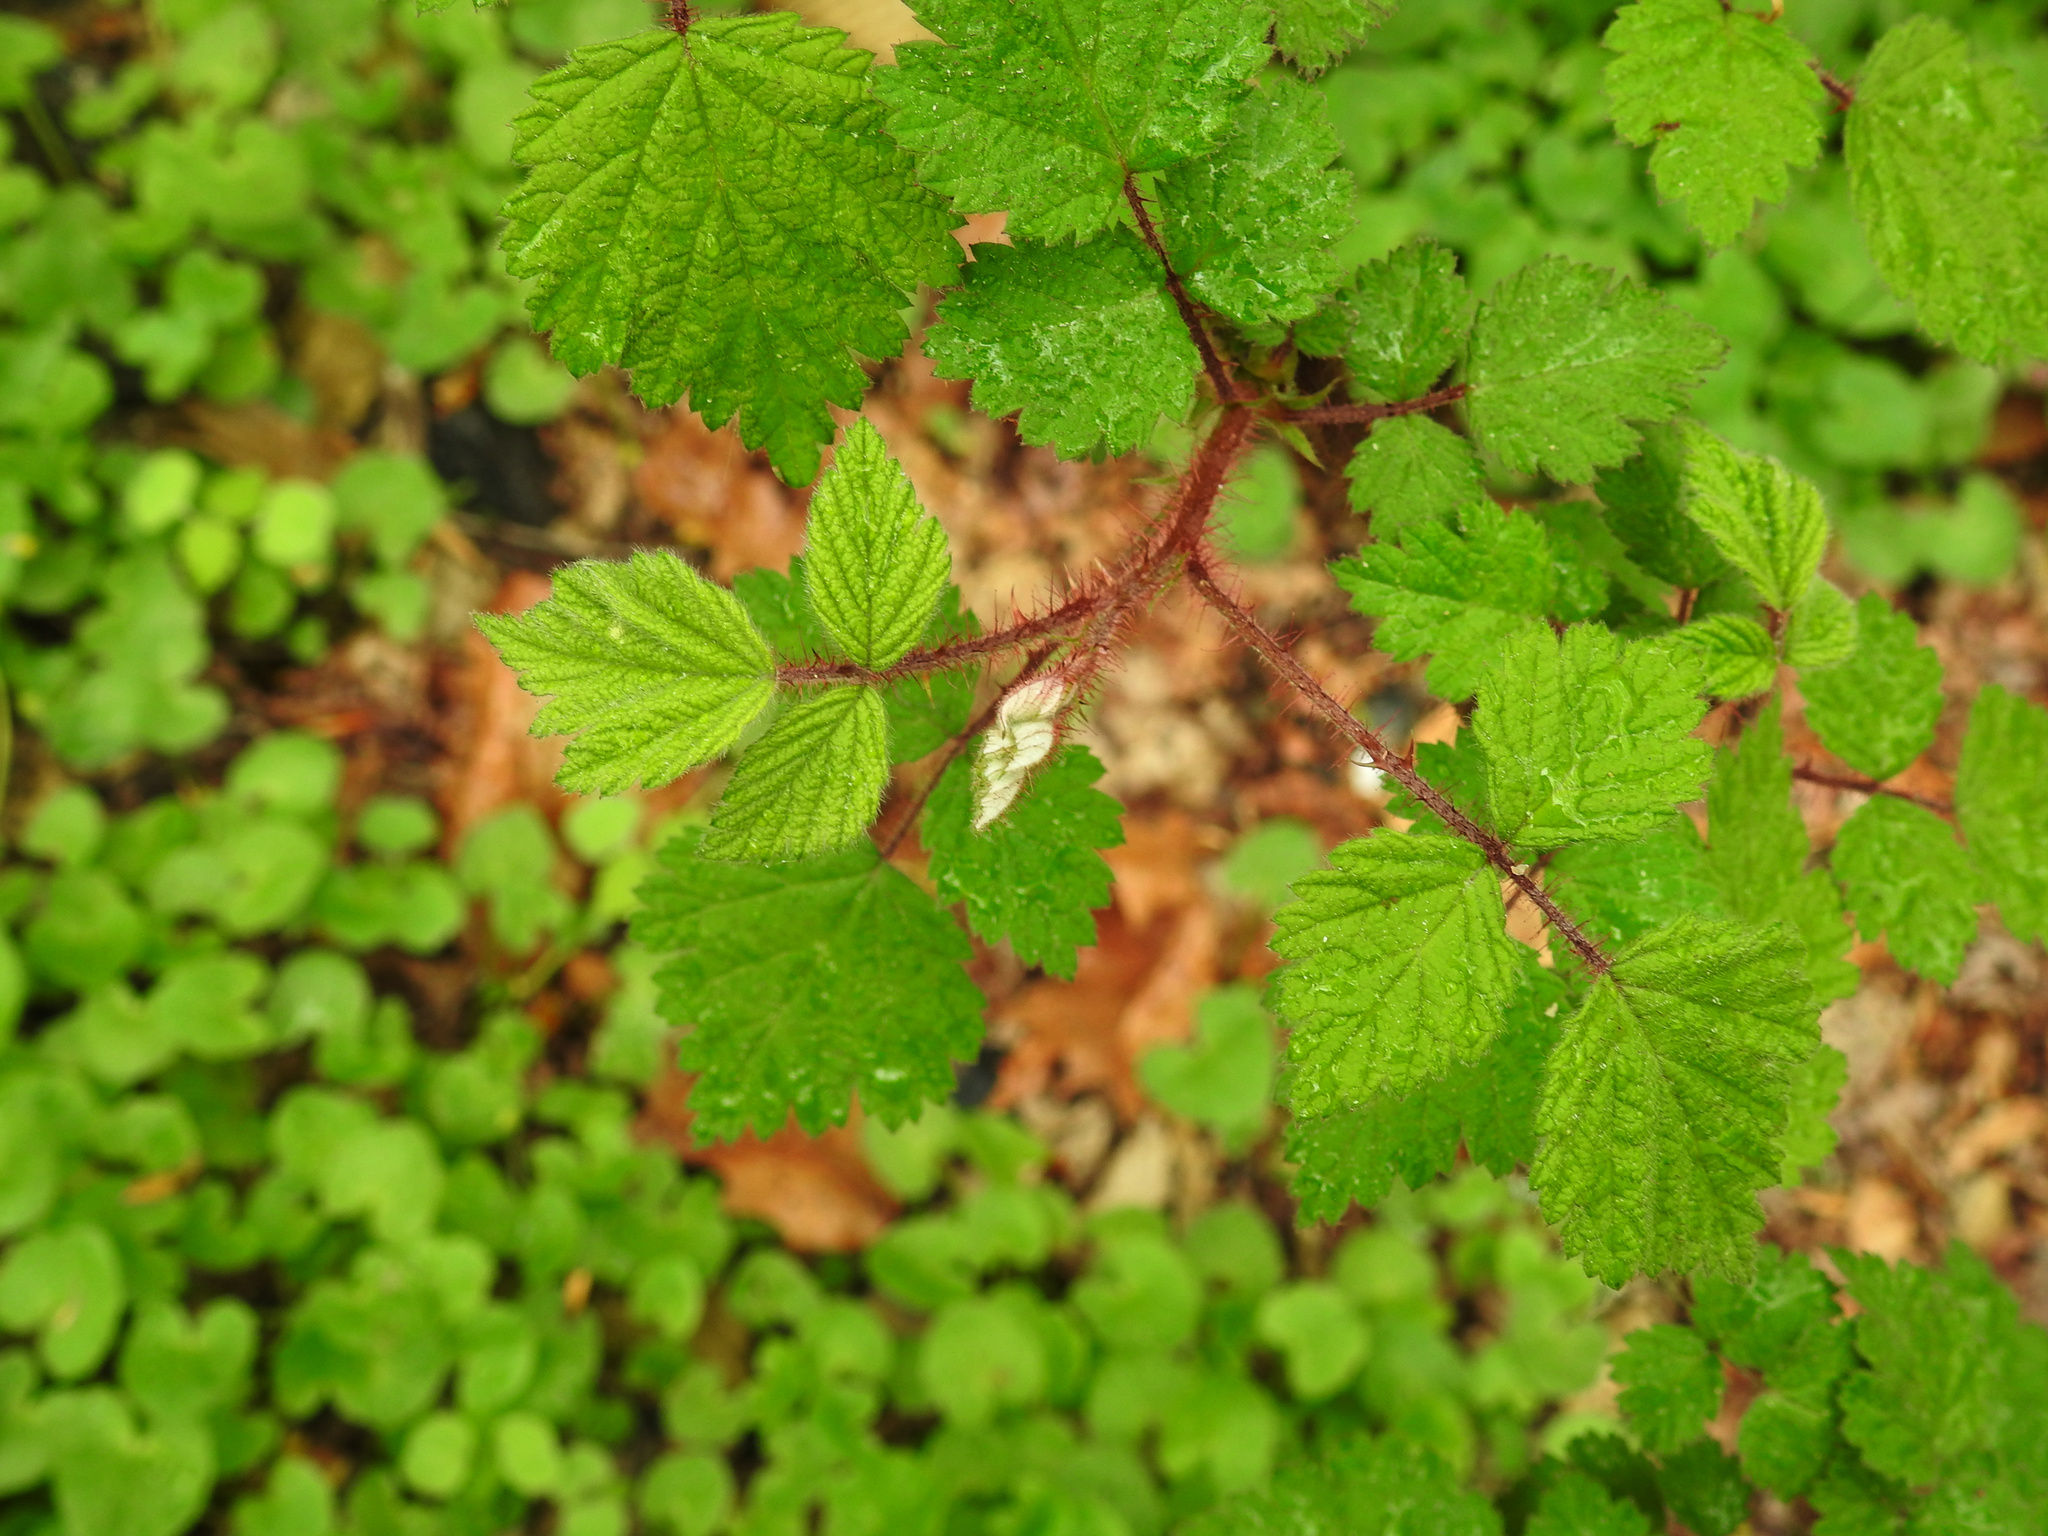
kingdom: Plantae
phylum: Tracheophyta
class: Magnoliopsida
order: Rosales
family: Rosaceae
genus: Rubus
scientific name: Rubus phoenicolasius
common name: Japanese wineberry
